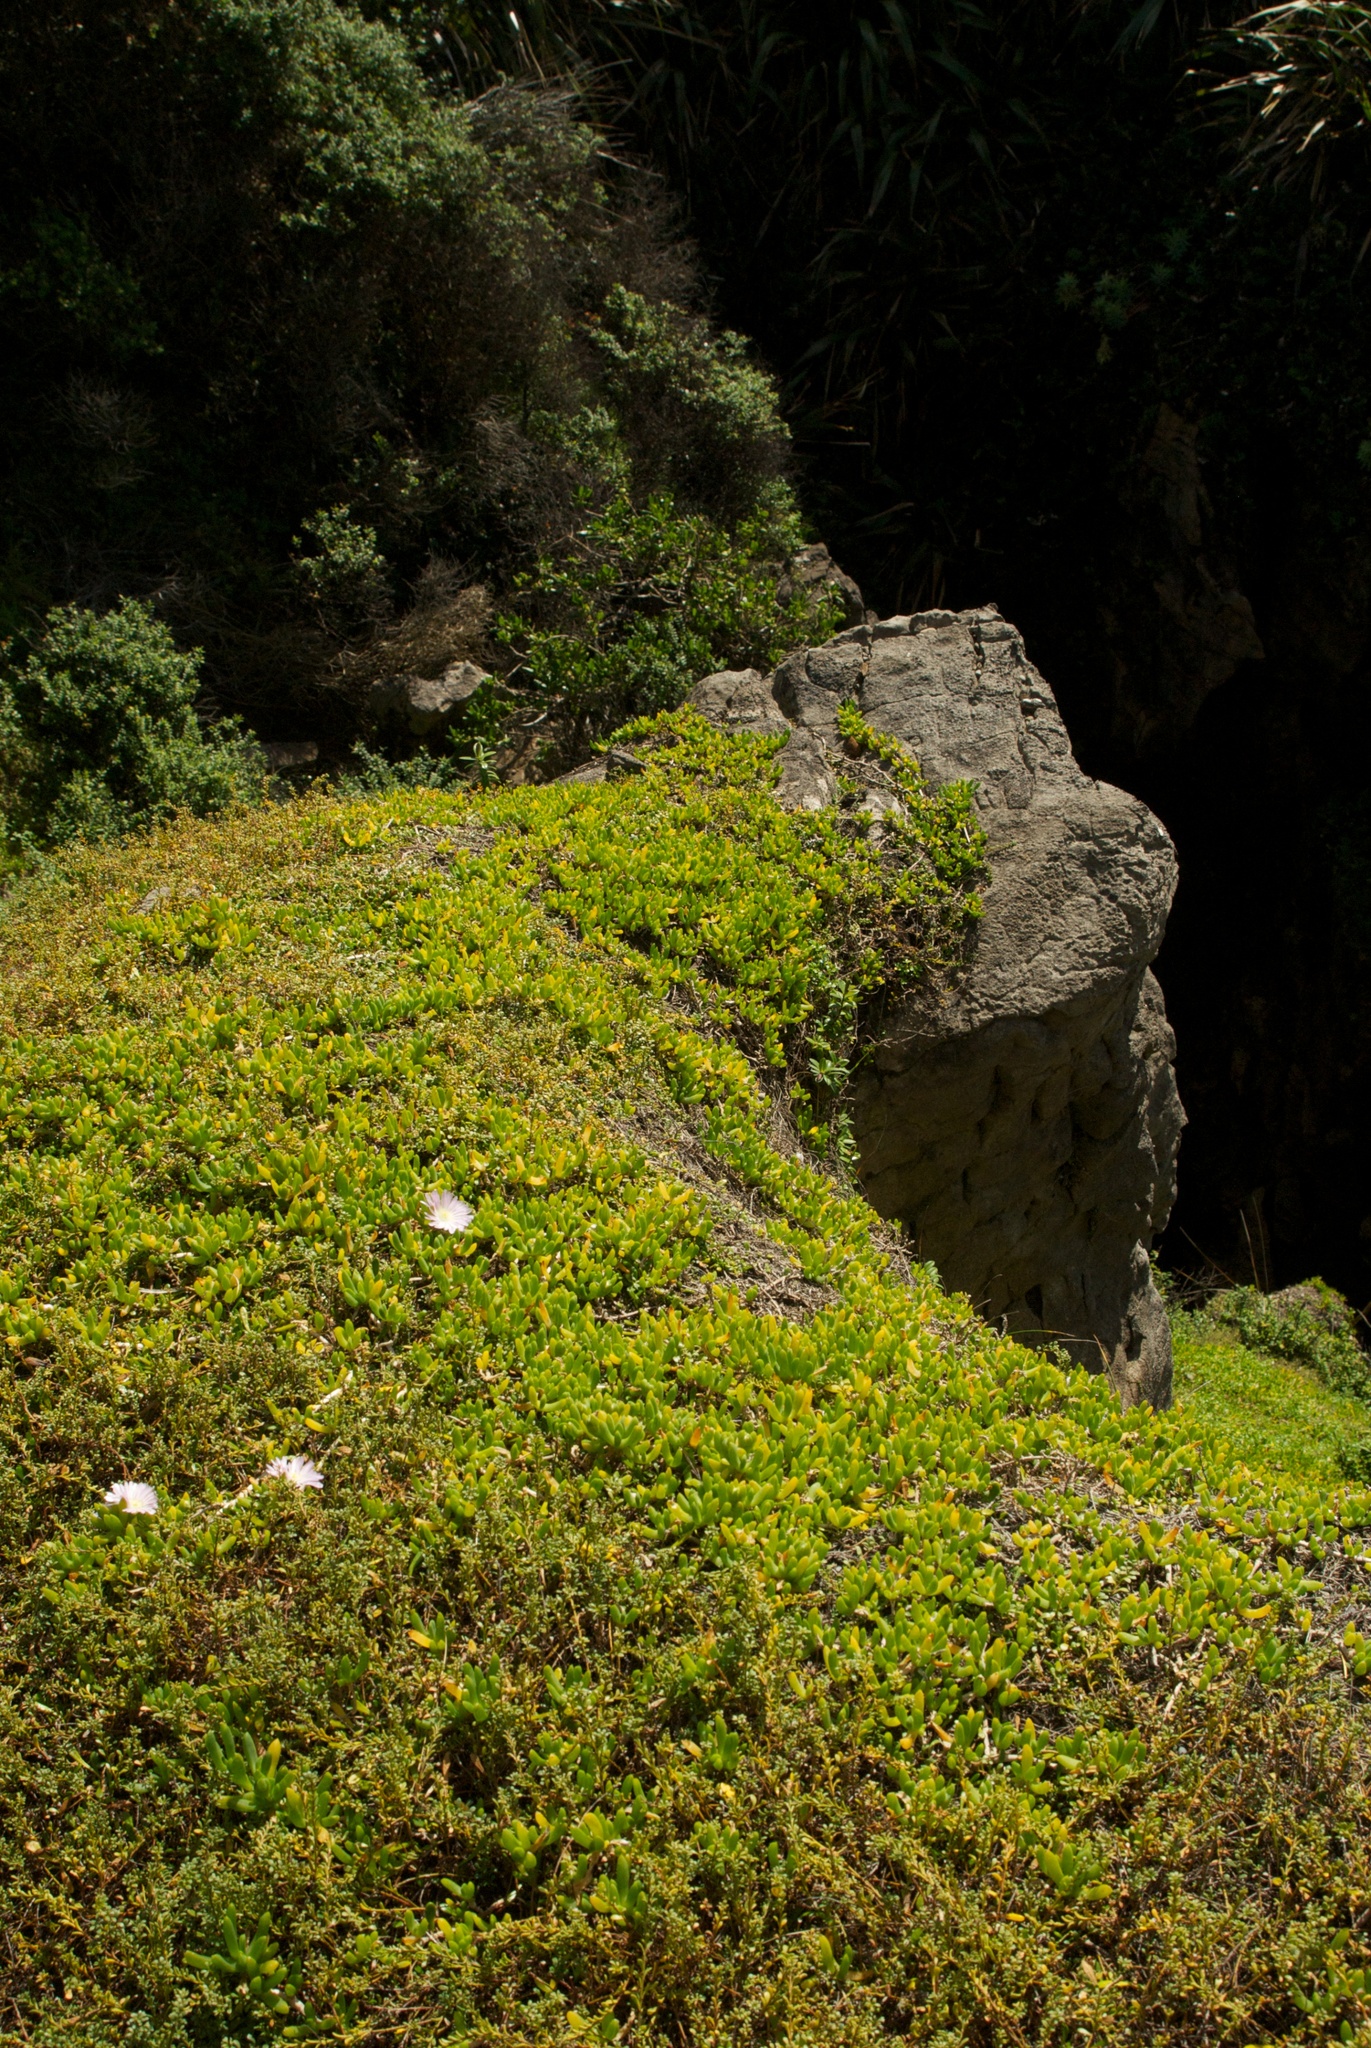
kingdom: Plantae
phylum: Tracheophyta
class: Magnoliopsida
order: Caryophyllales
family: Aizoaceae
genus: Disphyma
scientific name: Disphyma australe
